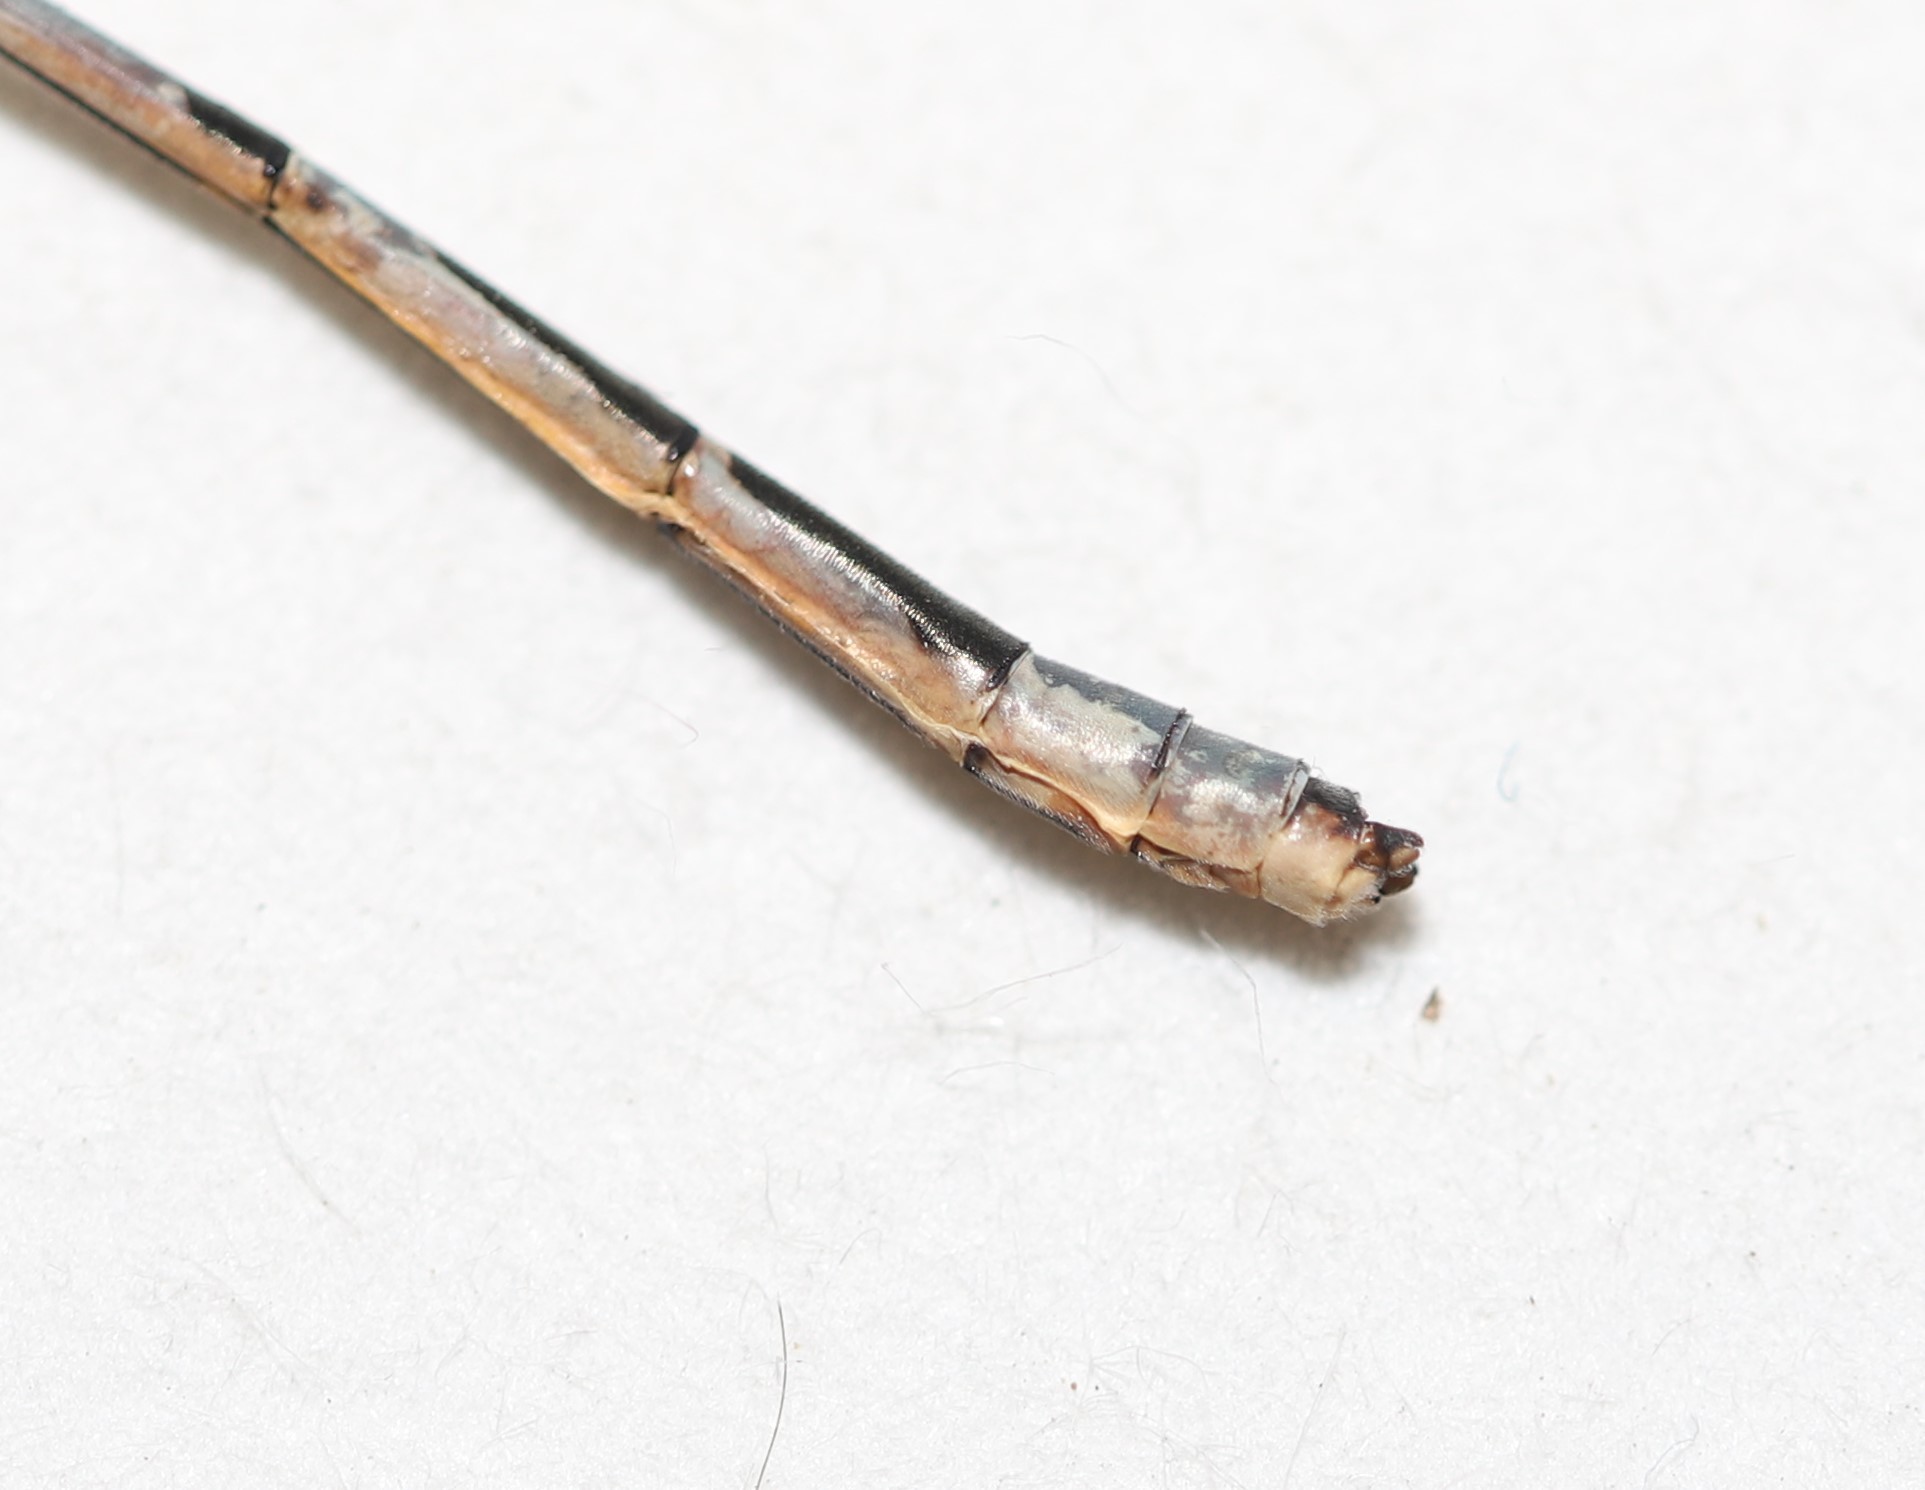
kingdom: Animalia
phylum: Arthropoda
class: Insecta
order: Odonata
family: Coenagrionidae
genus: Enallagma
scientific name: Enallagma civile
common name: Damselfly
